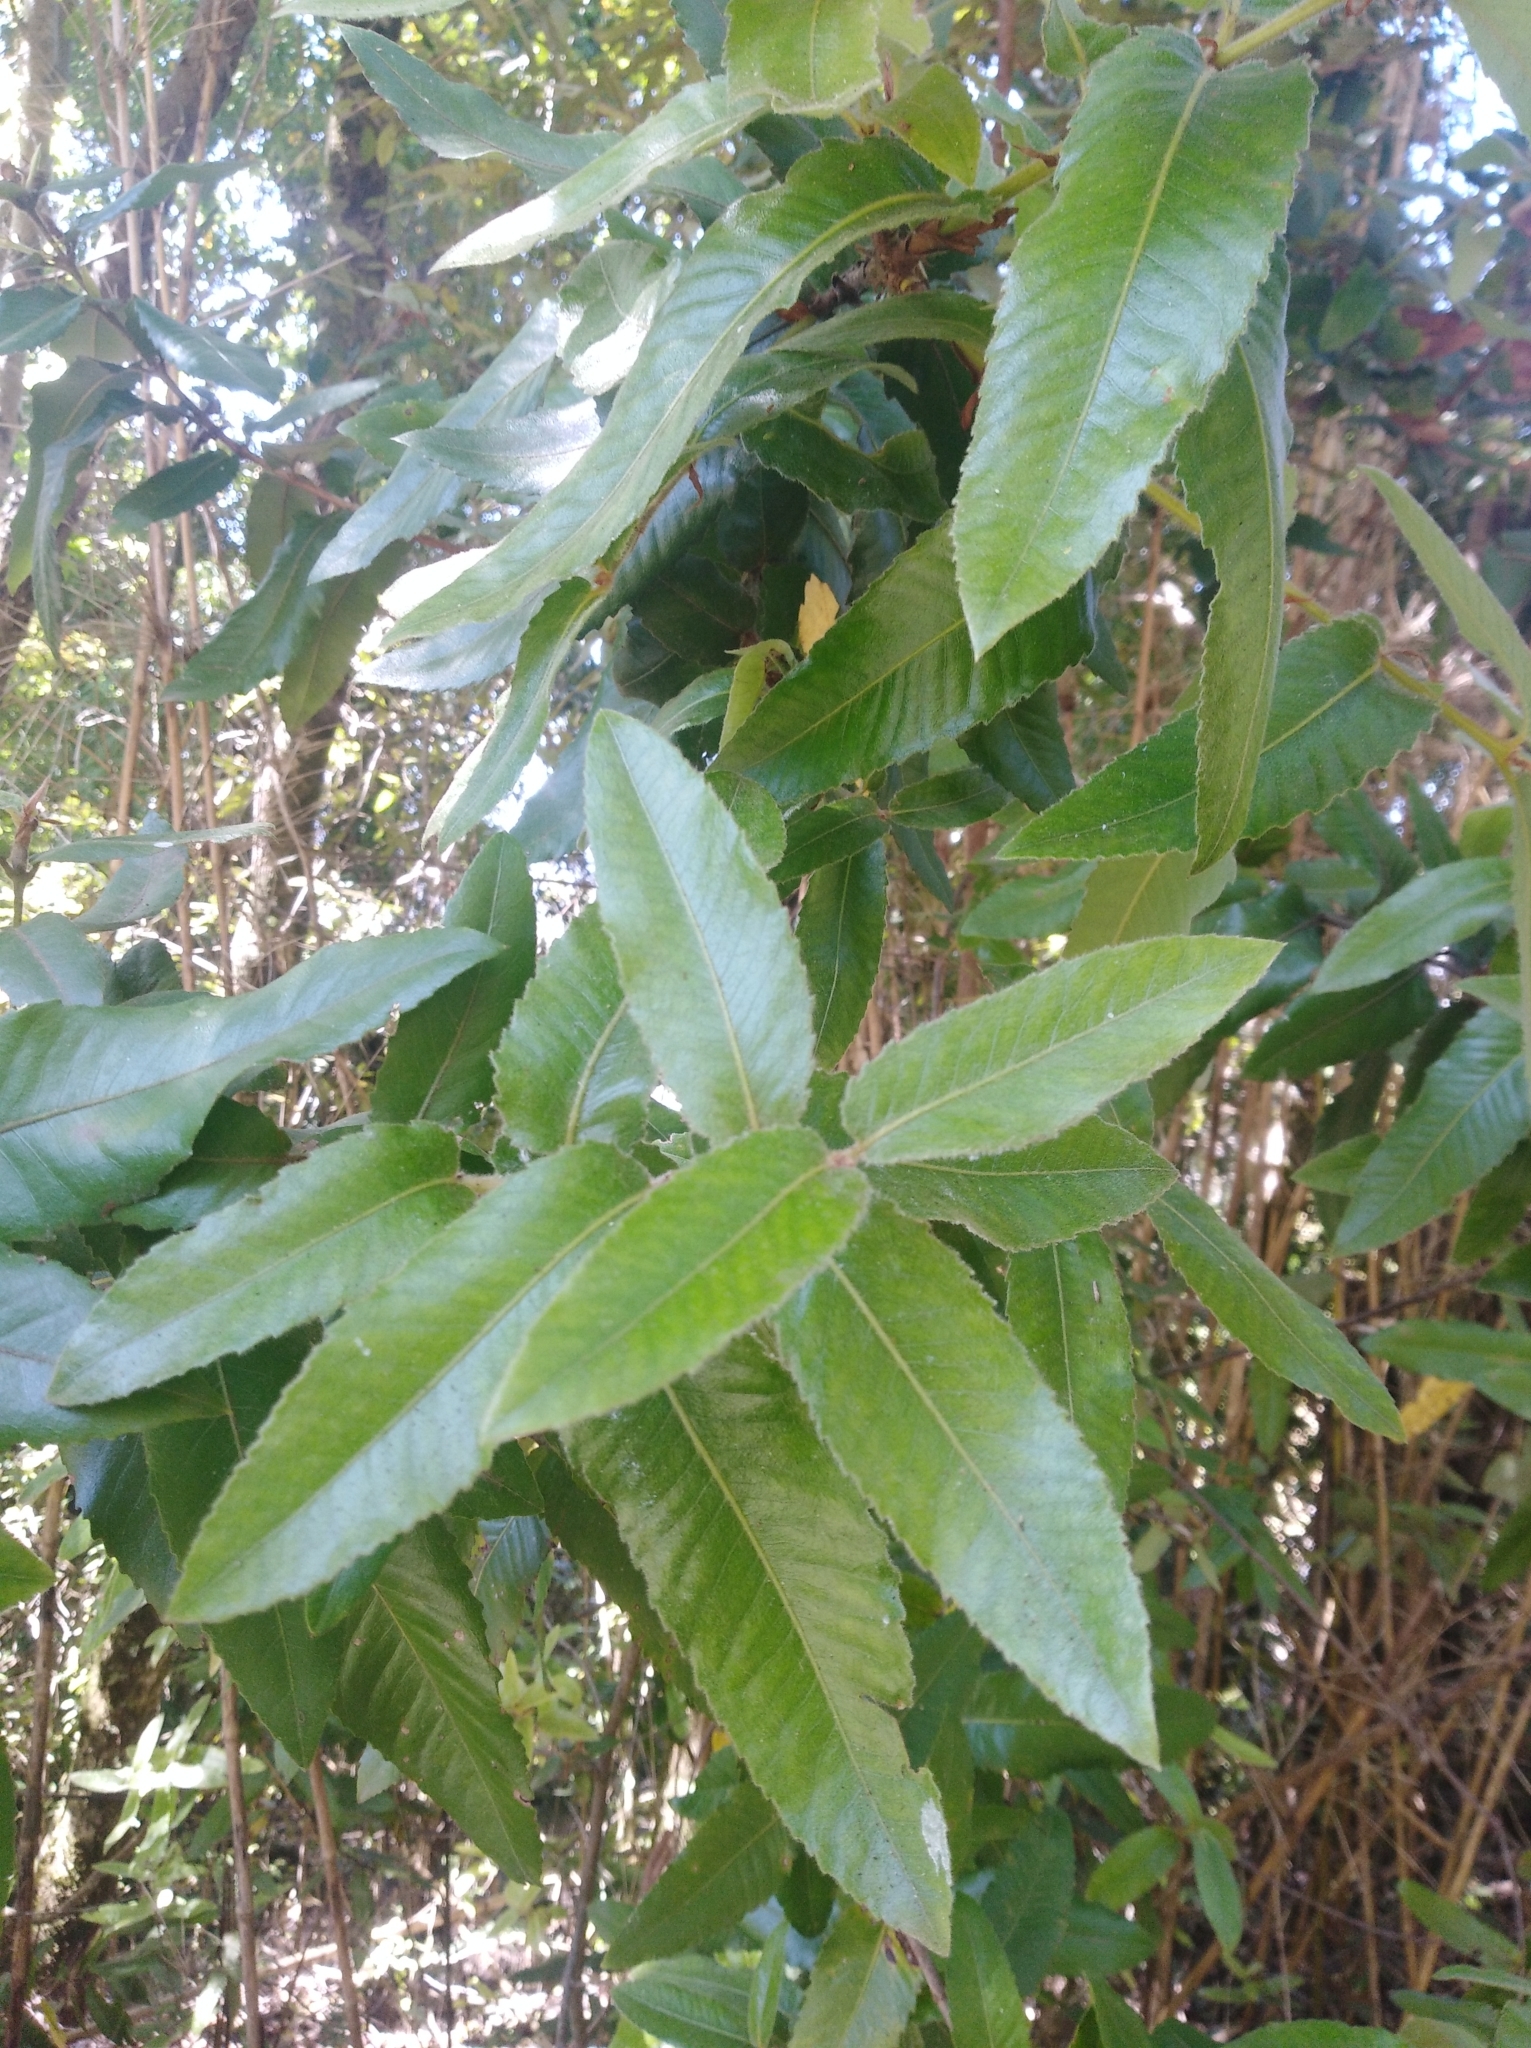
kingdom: Plantae
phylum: Tracheophyta
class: Magnoliopsida
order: Oxalidales
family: Cunoniaceae
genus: Eucryphia
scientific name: Eucryphia cordifolia
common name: Ulmo
